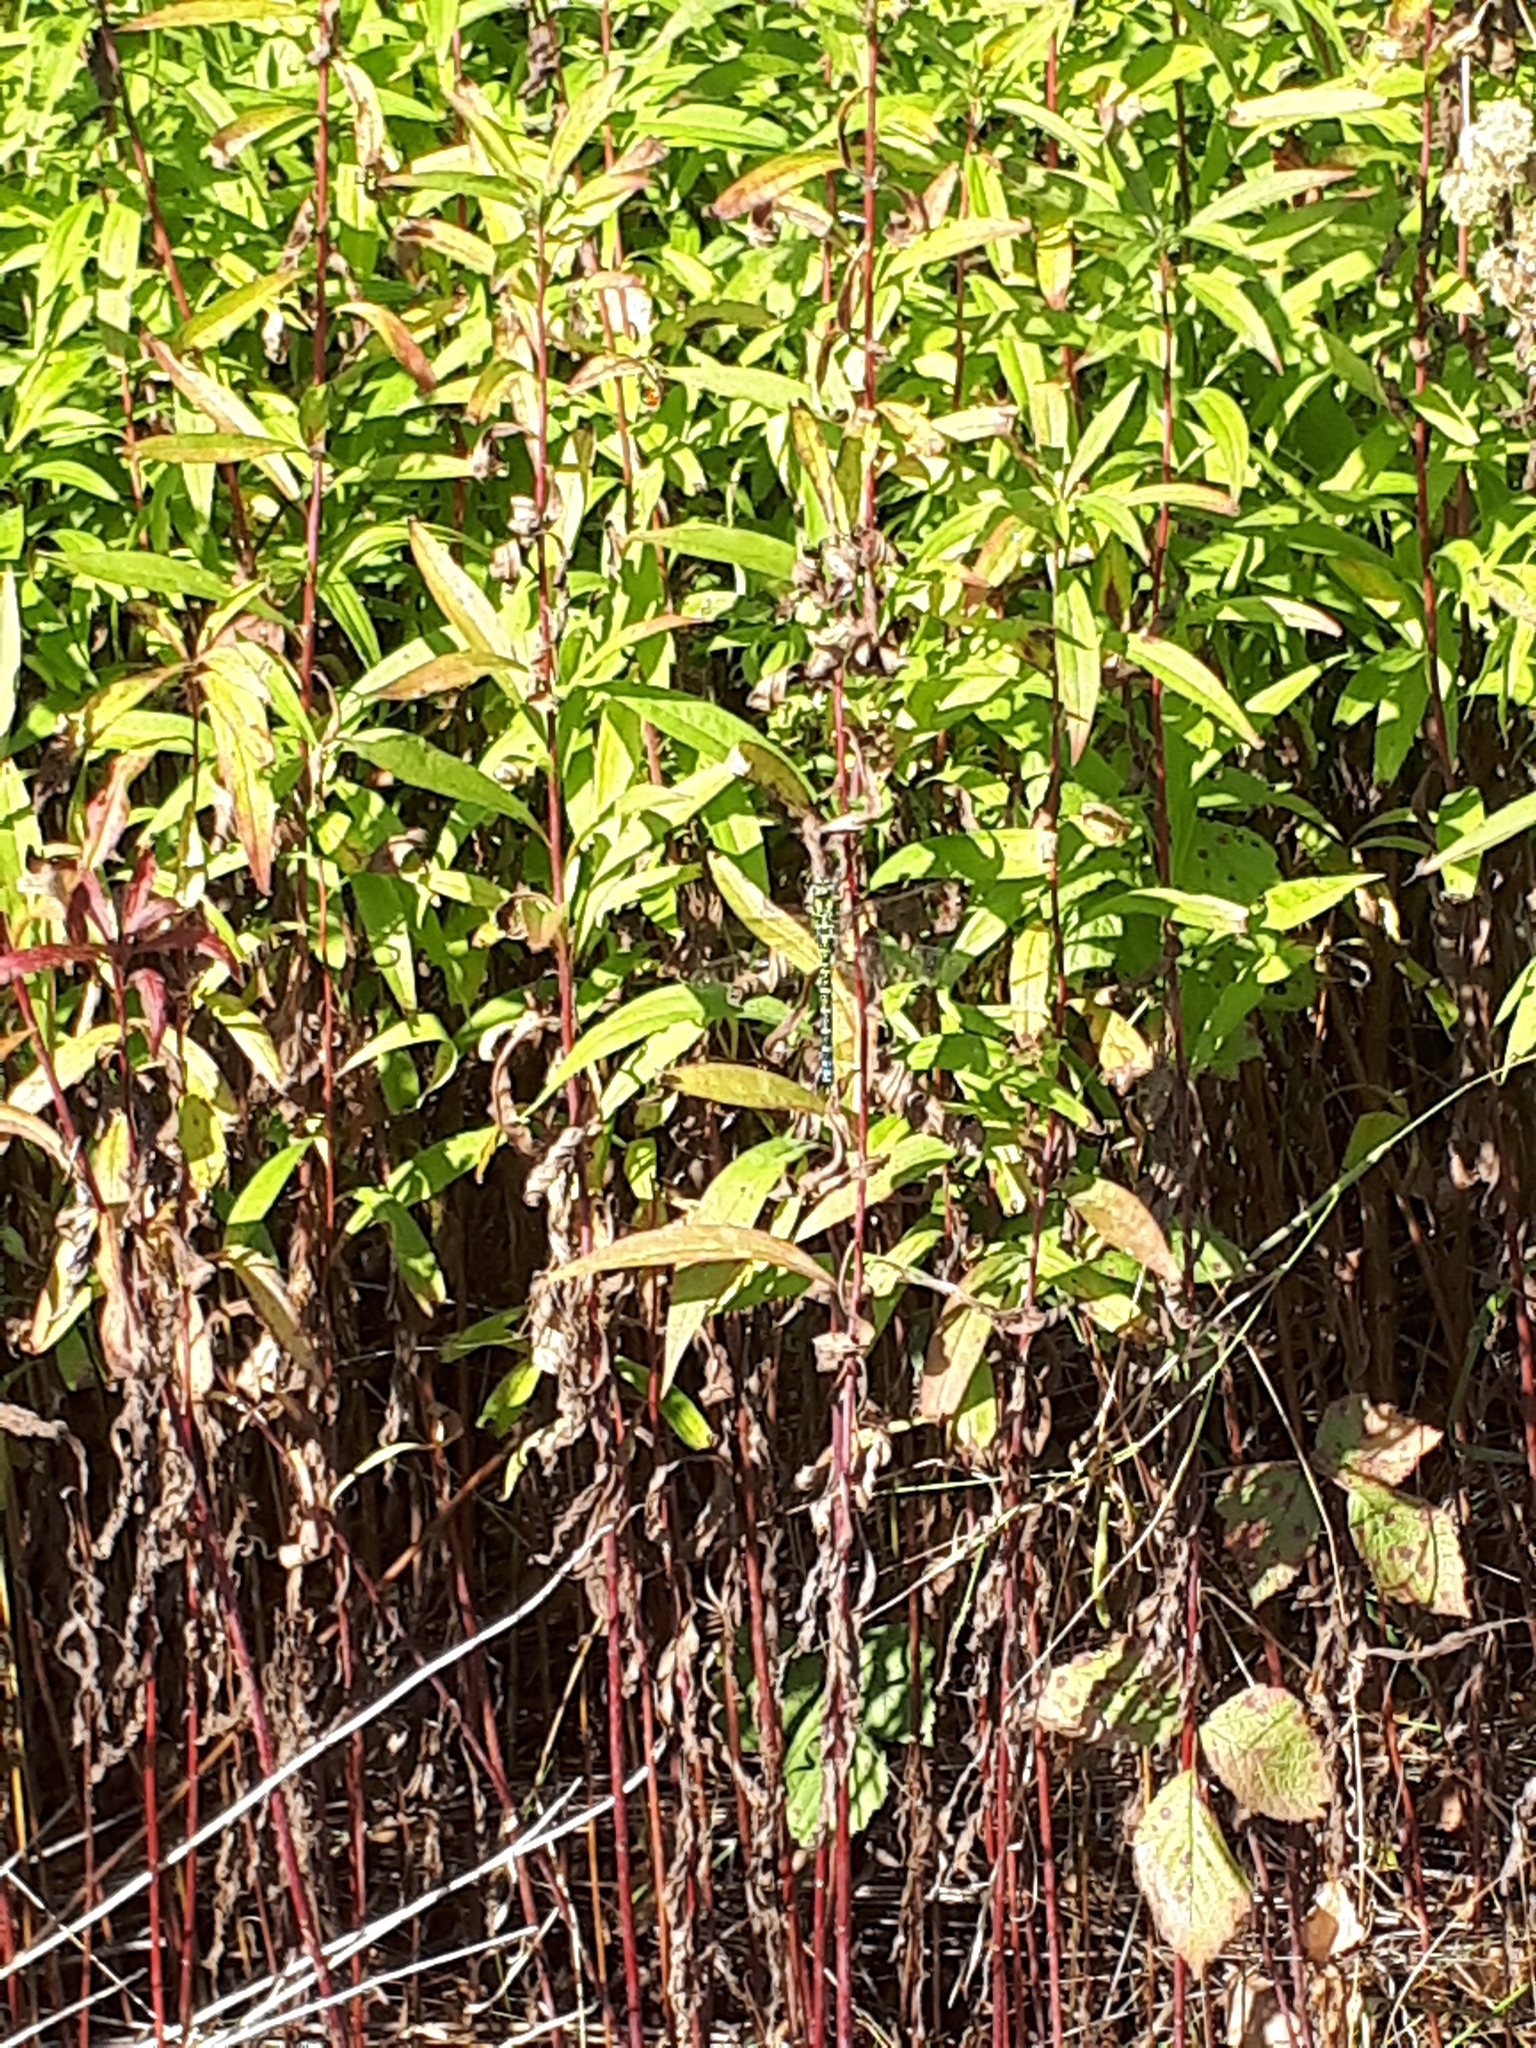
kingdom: Animalia
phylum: Arthropoda
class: Insecta
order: Odonata
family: Aeshnidae
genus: Aeshna
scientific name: Aeshna cyanea
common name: Southern hawker
